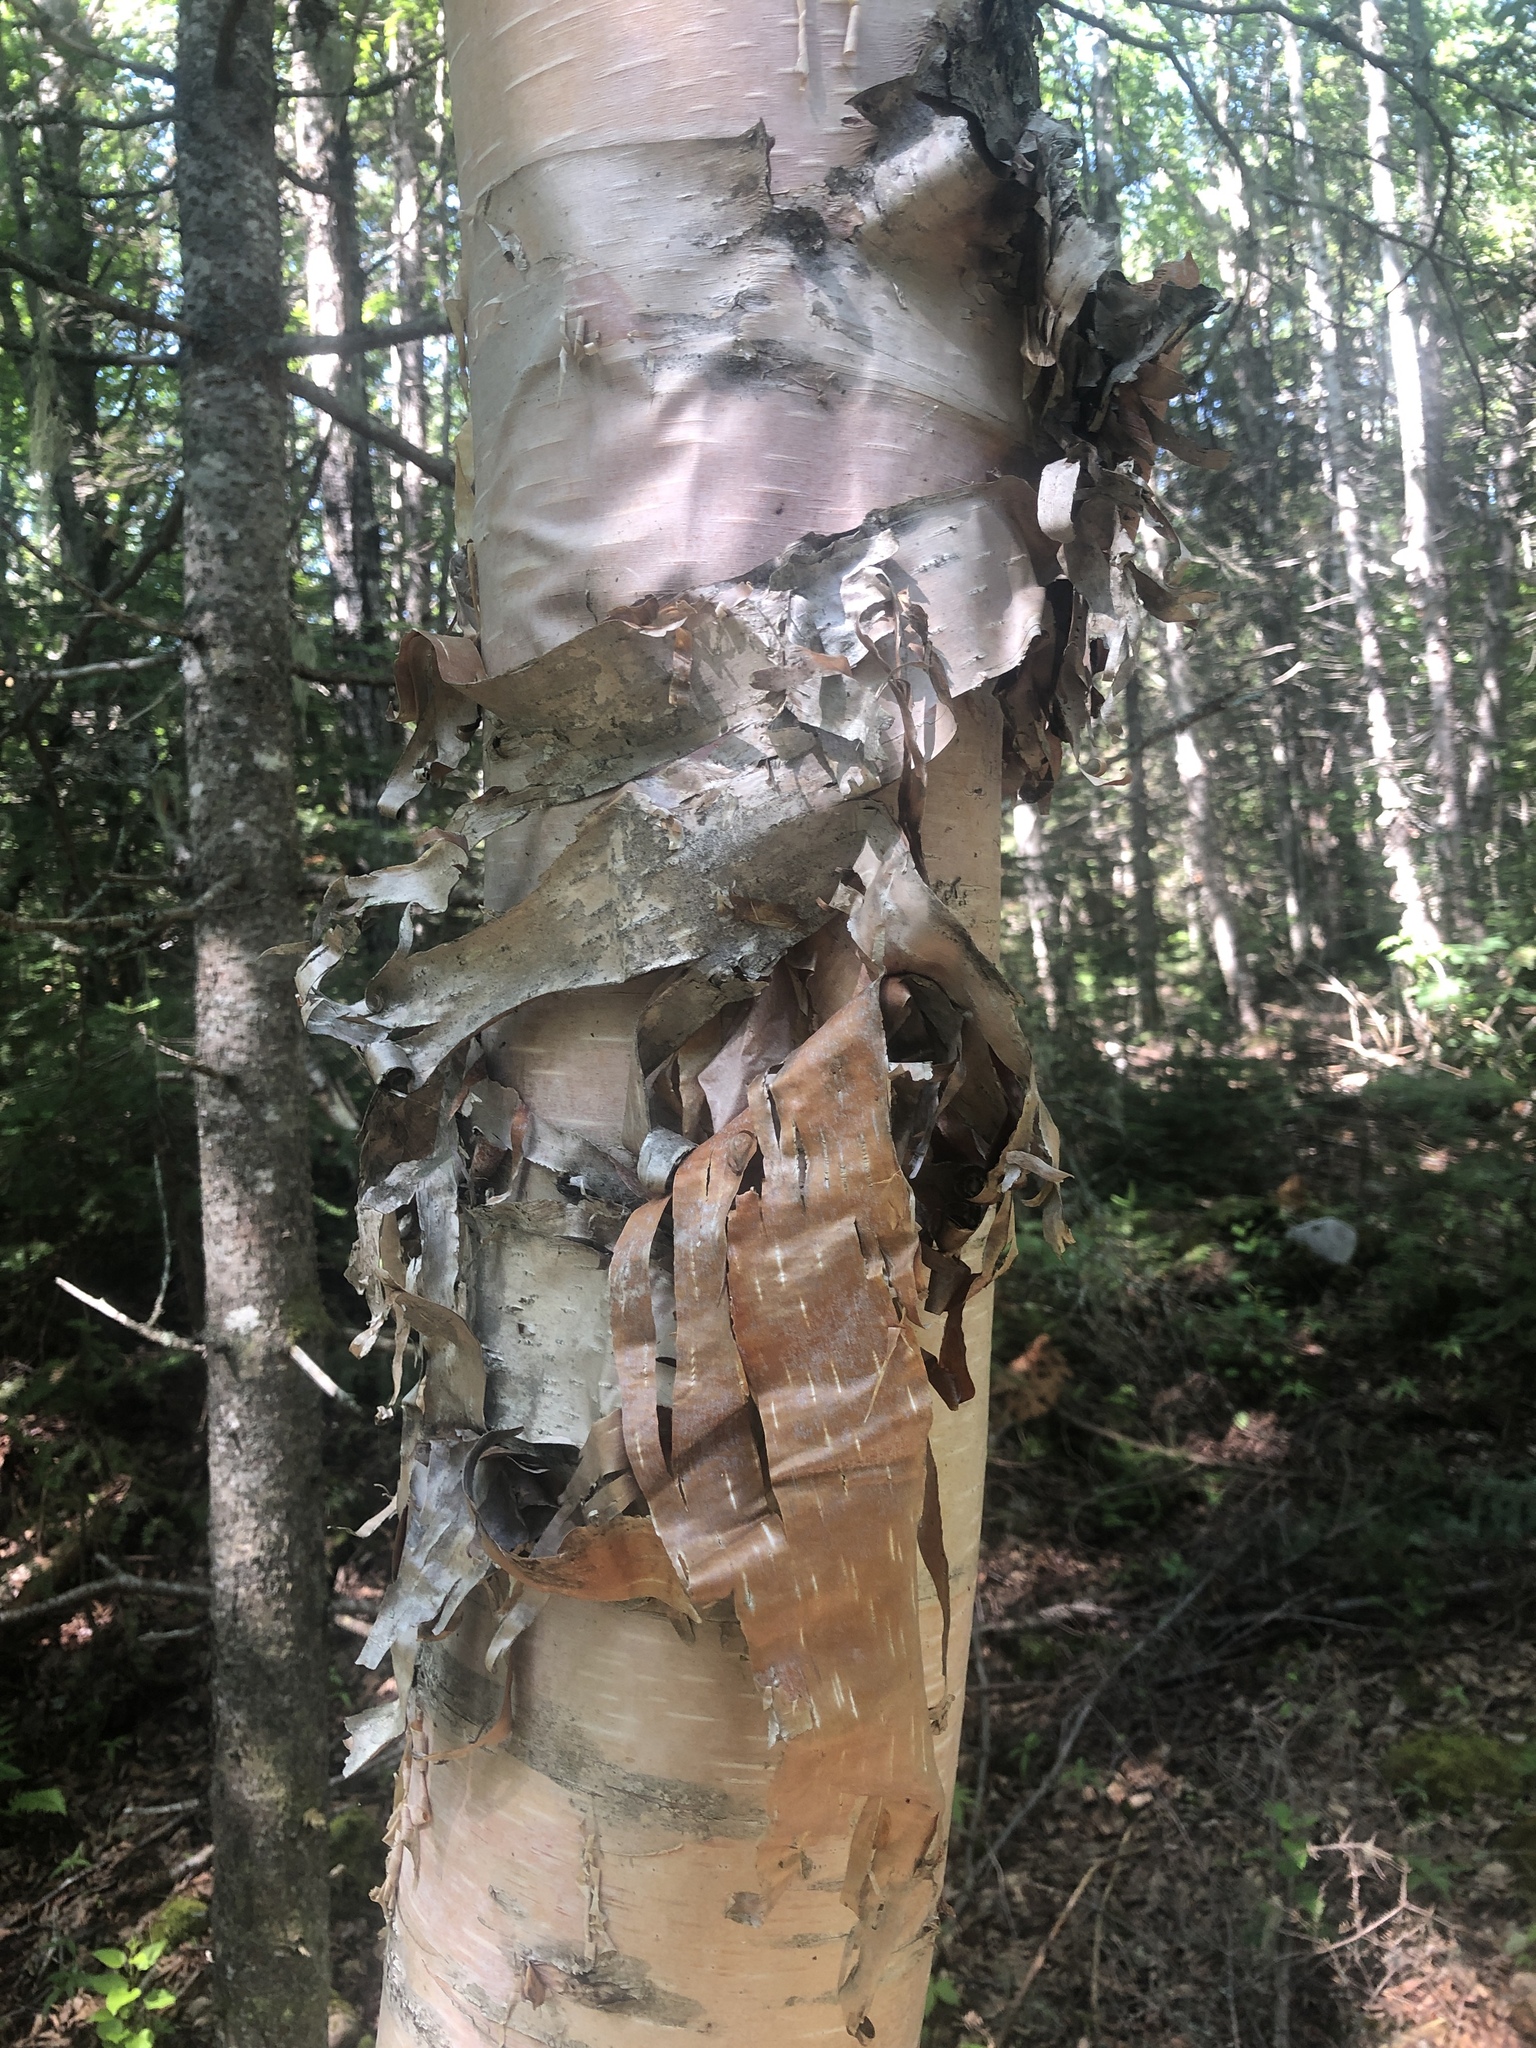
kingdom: Plantae
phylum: Tracheophyta
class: Magnoliopsida
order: Fagales
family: Betulaceae
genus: Betula
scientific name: Betula papyrifera
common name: Paper birch
